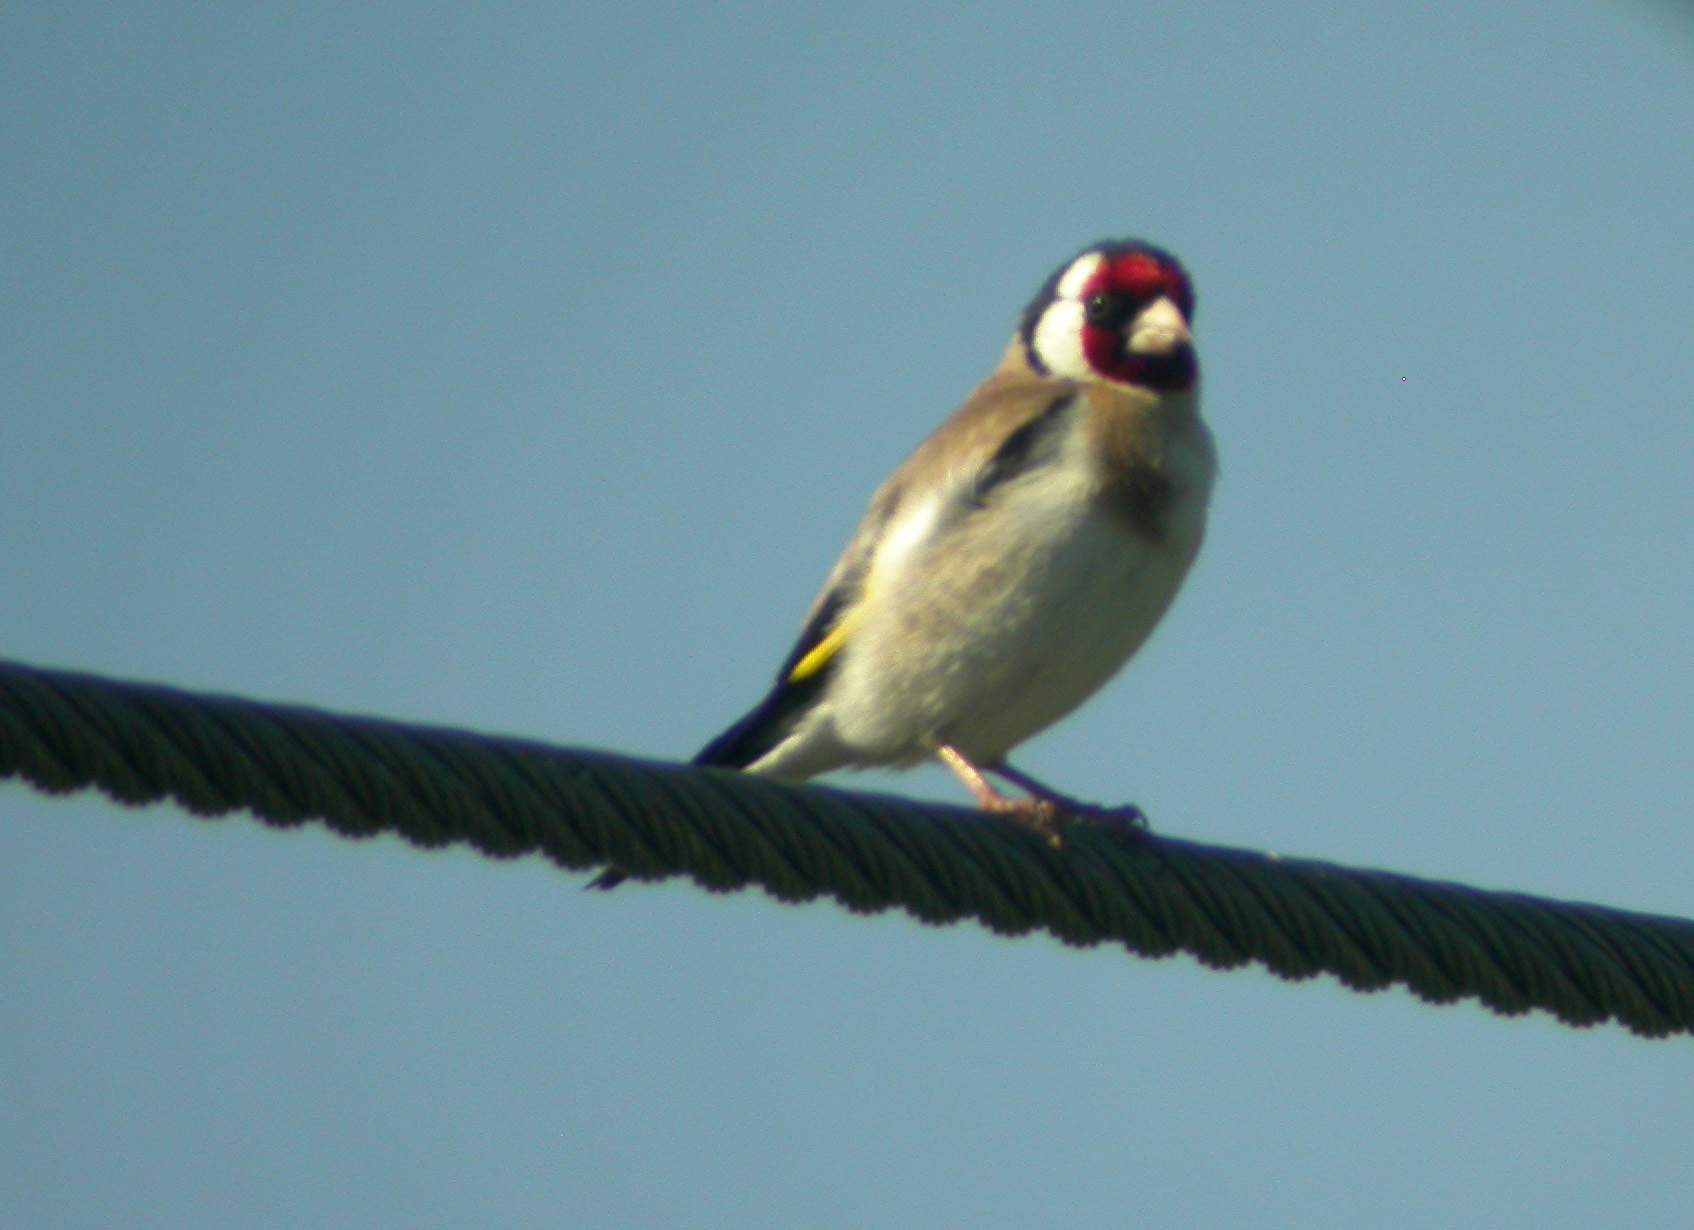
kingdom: Animalia
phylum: Chordata
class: Aves
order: Passeriformes
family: Fringillidae
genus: Carduelis
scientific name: Carduelis carduelis
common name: European goldfinch
